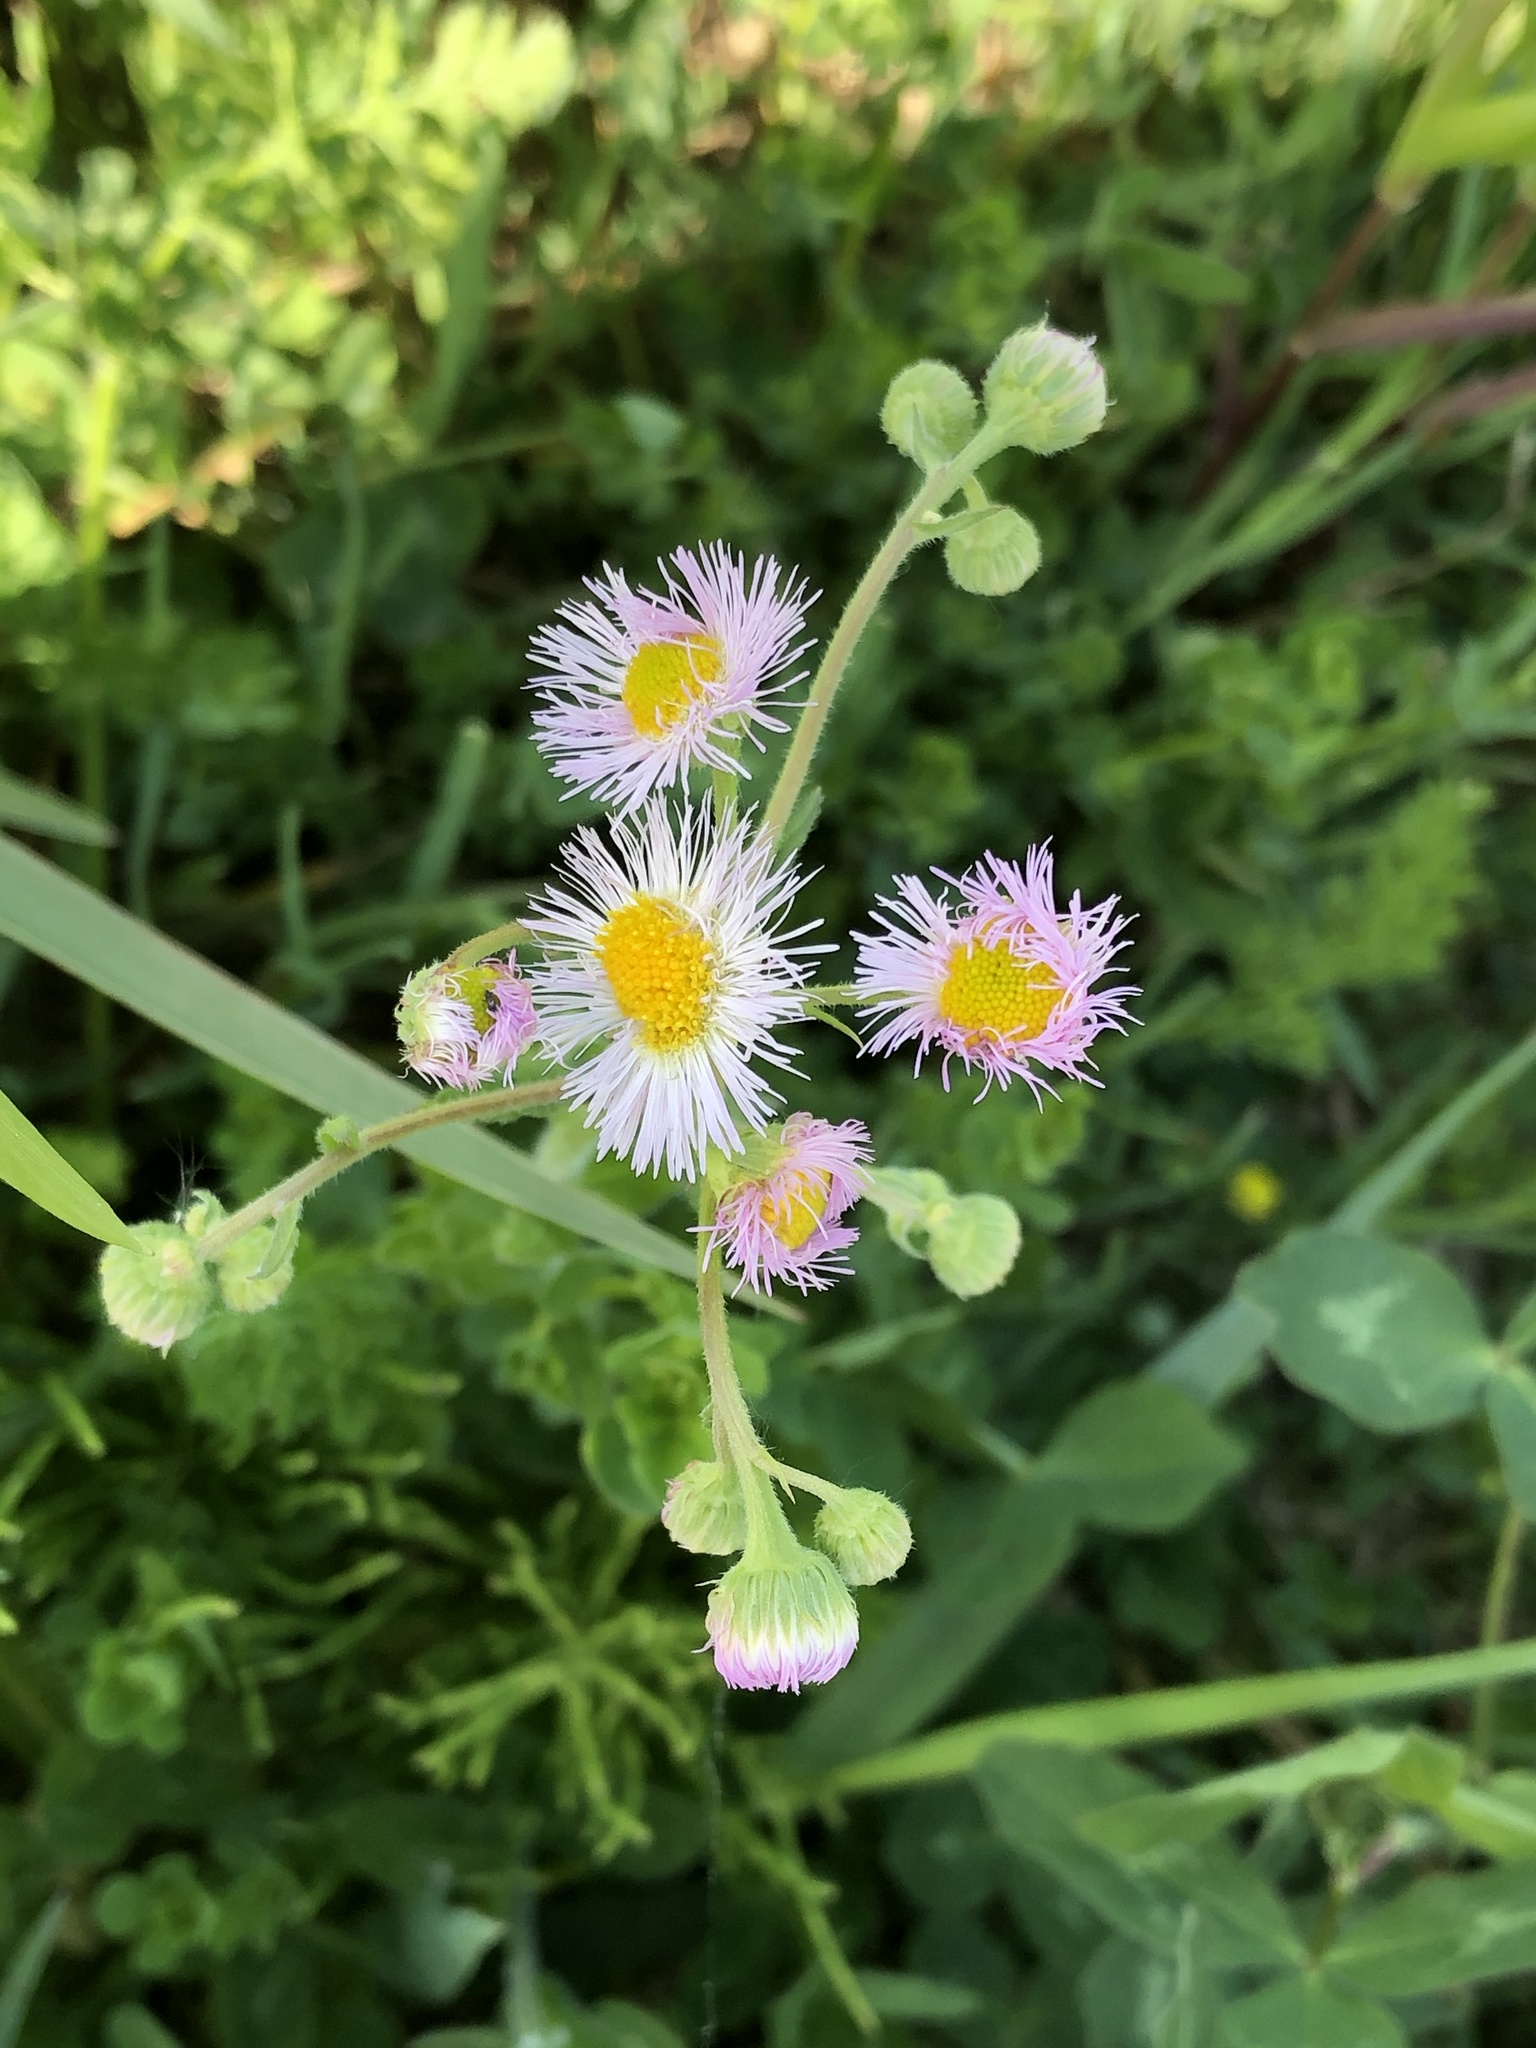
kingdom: Plantae
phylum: Tracheophyta
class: Magnoliopsida
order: Asterales
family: Asteraceae
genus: Erigeron
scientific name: Erigeron philadelphicus
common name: Robin's-plantain
